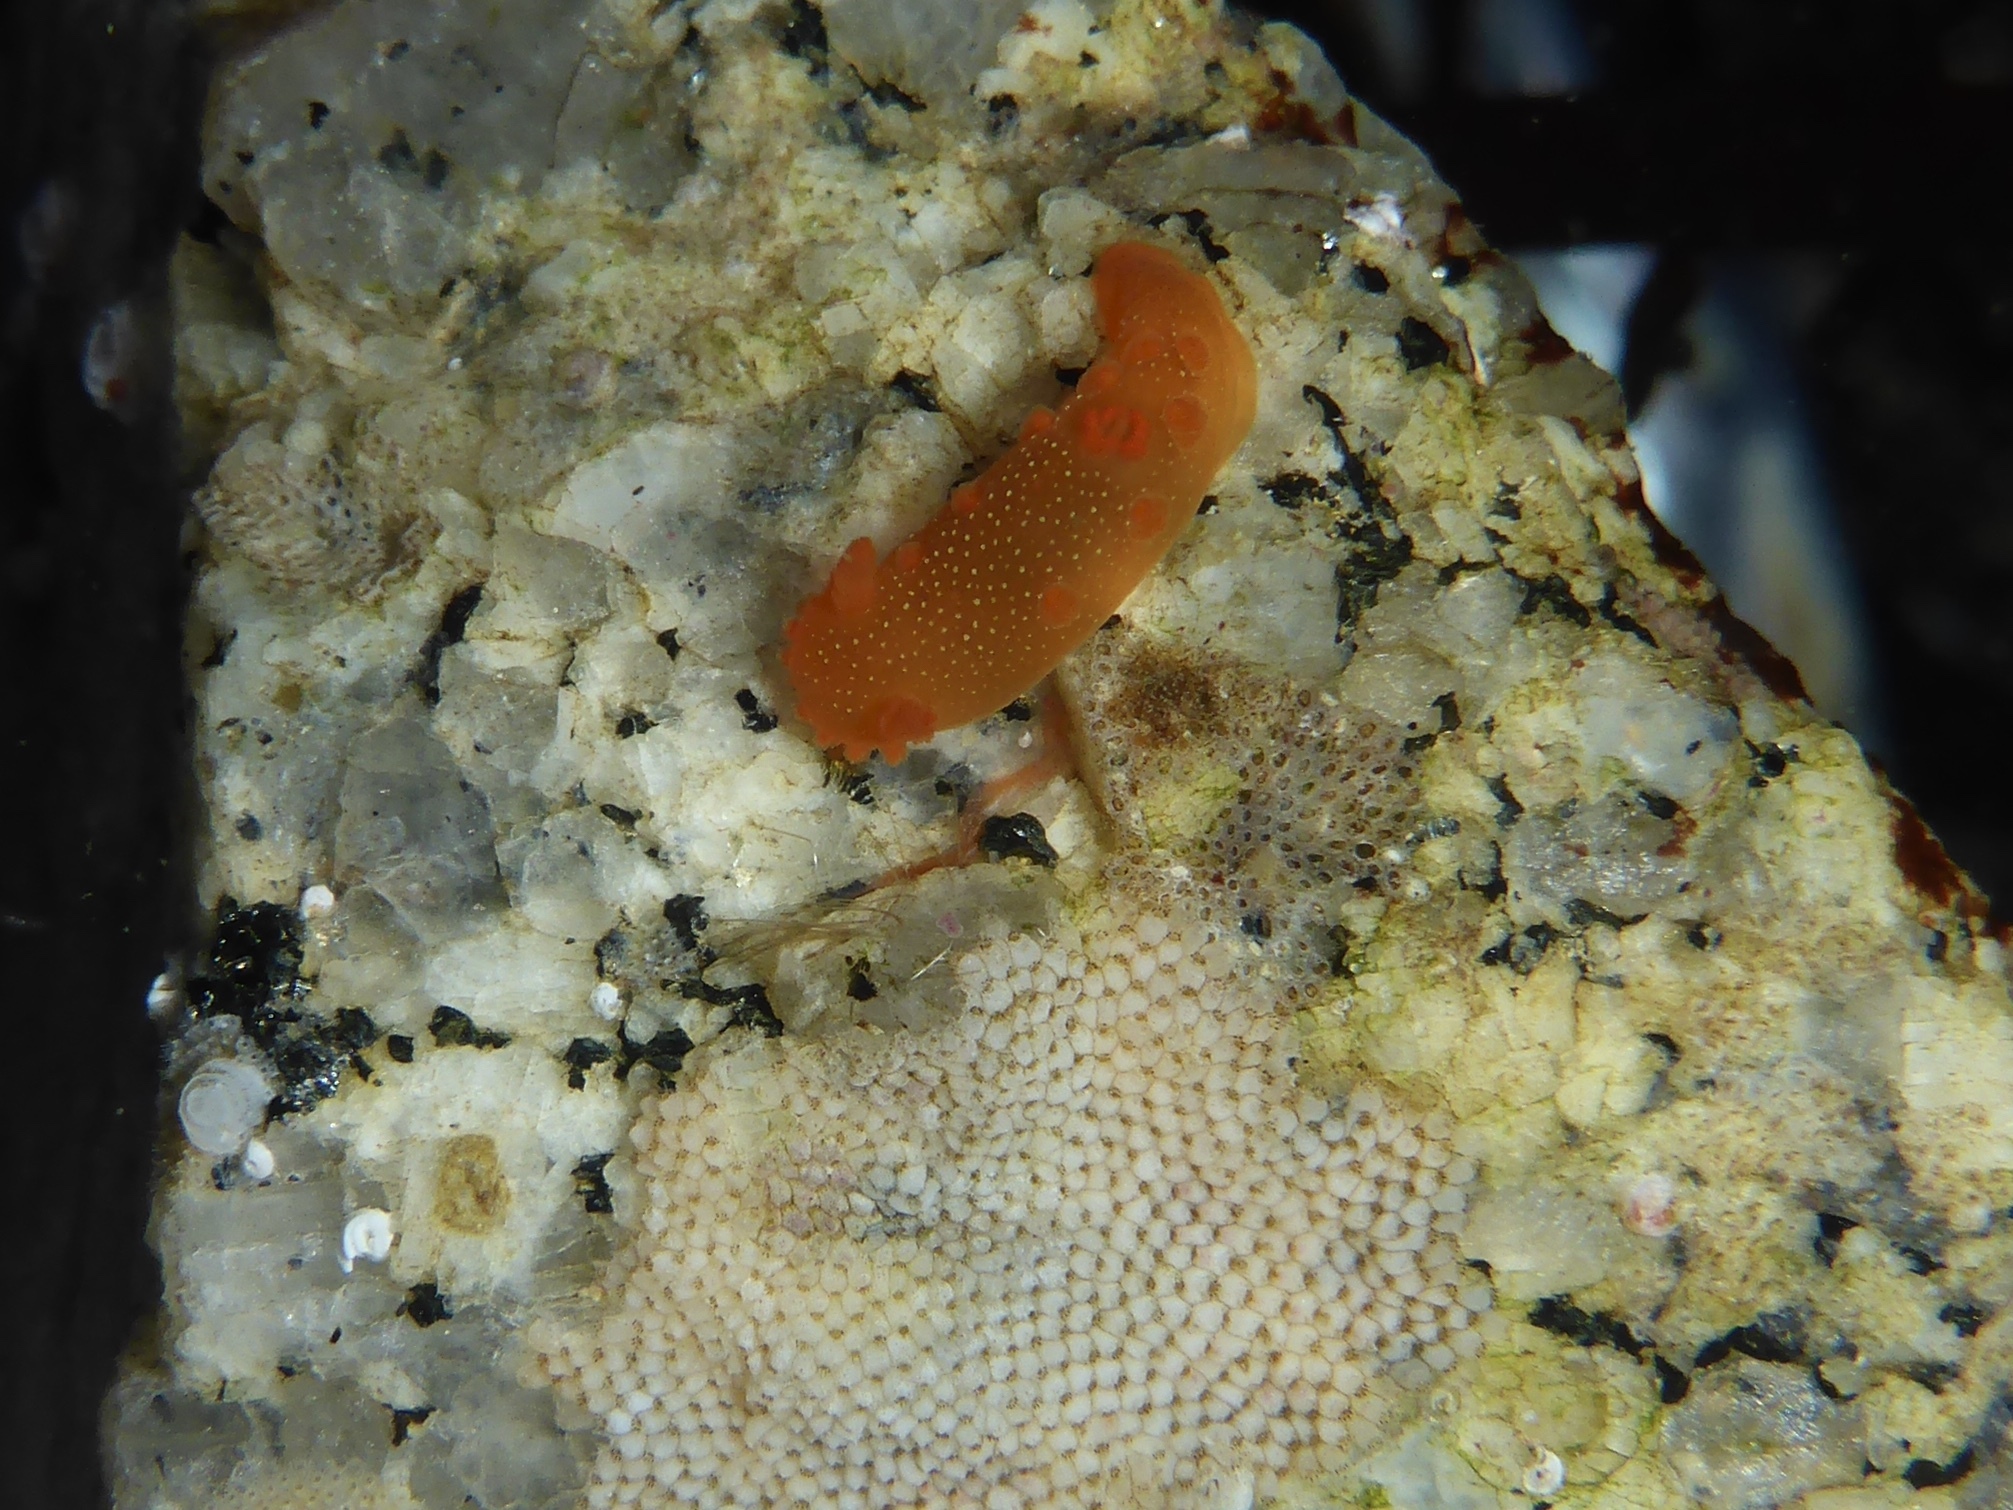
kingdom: Animalia
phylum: Mollusca
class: Gastropoda
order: Nudibranchia
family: Polyceridae
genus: Triopha
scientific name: Triopha maculata
